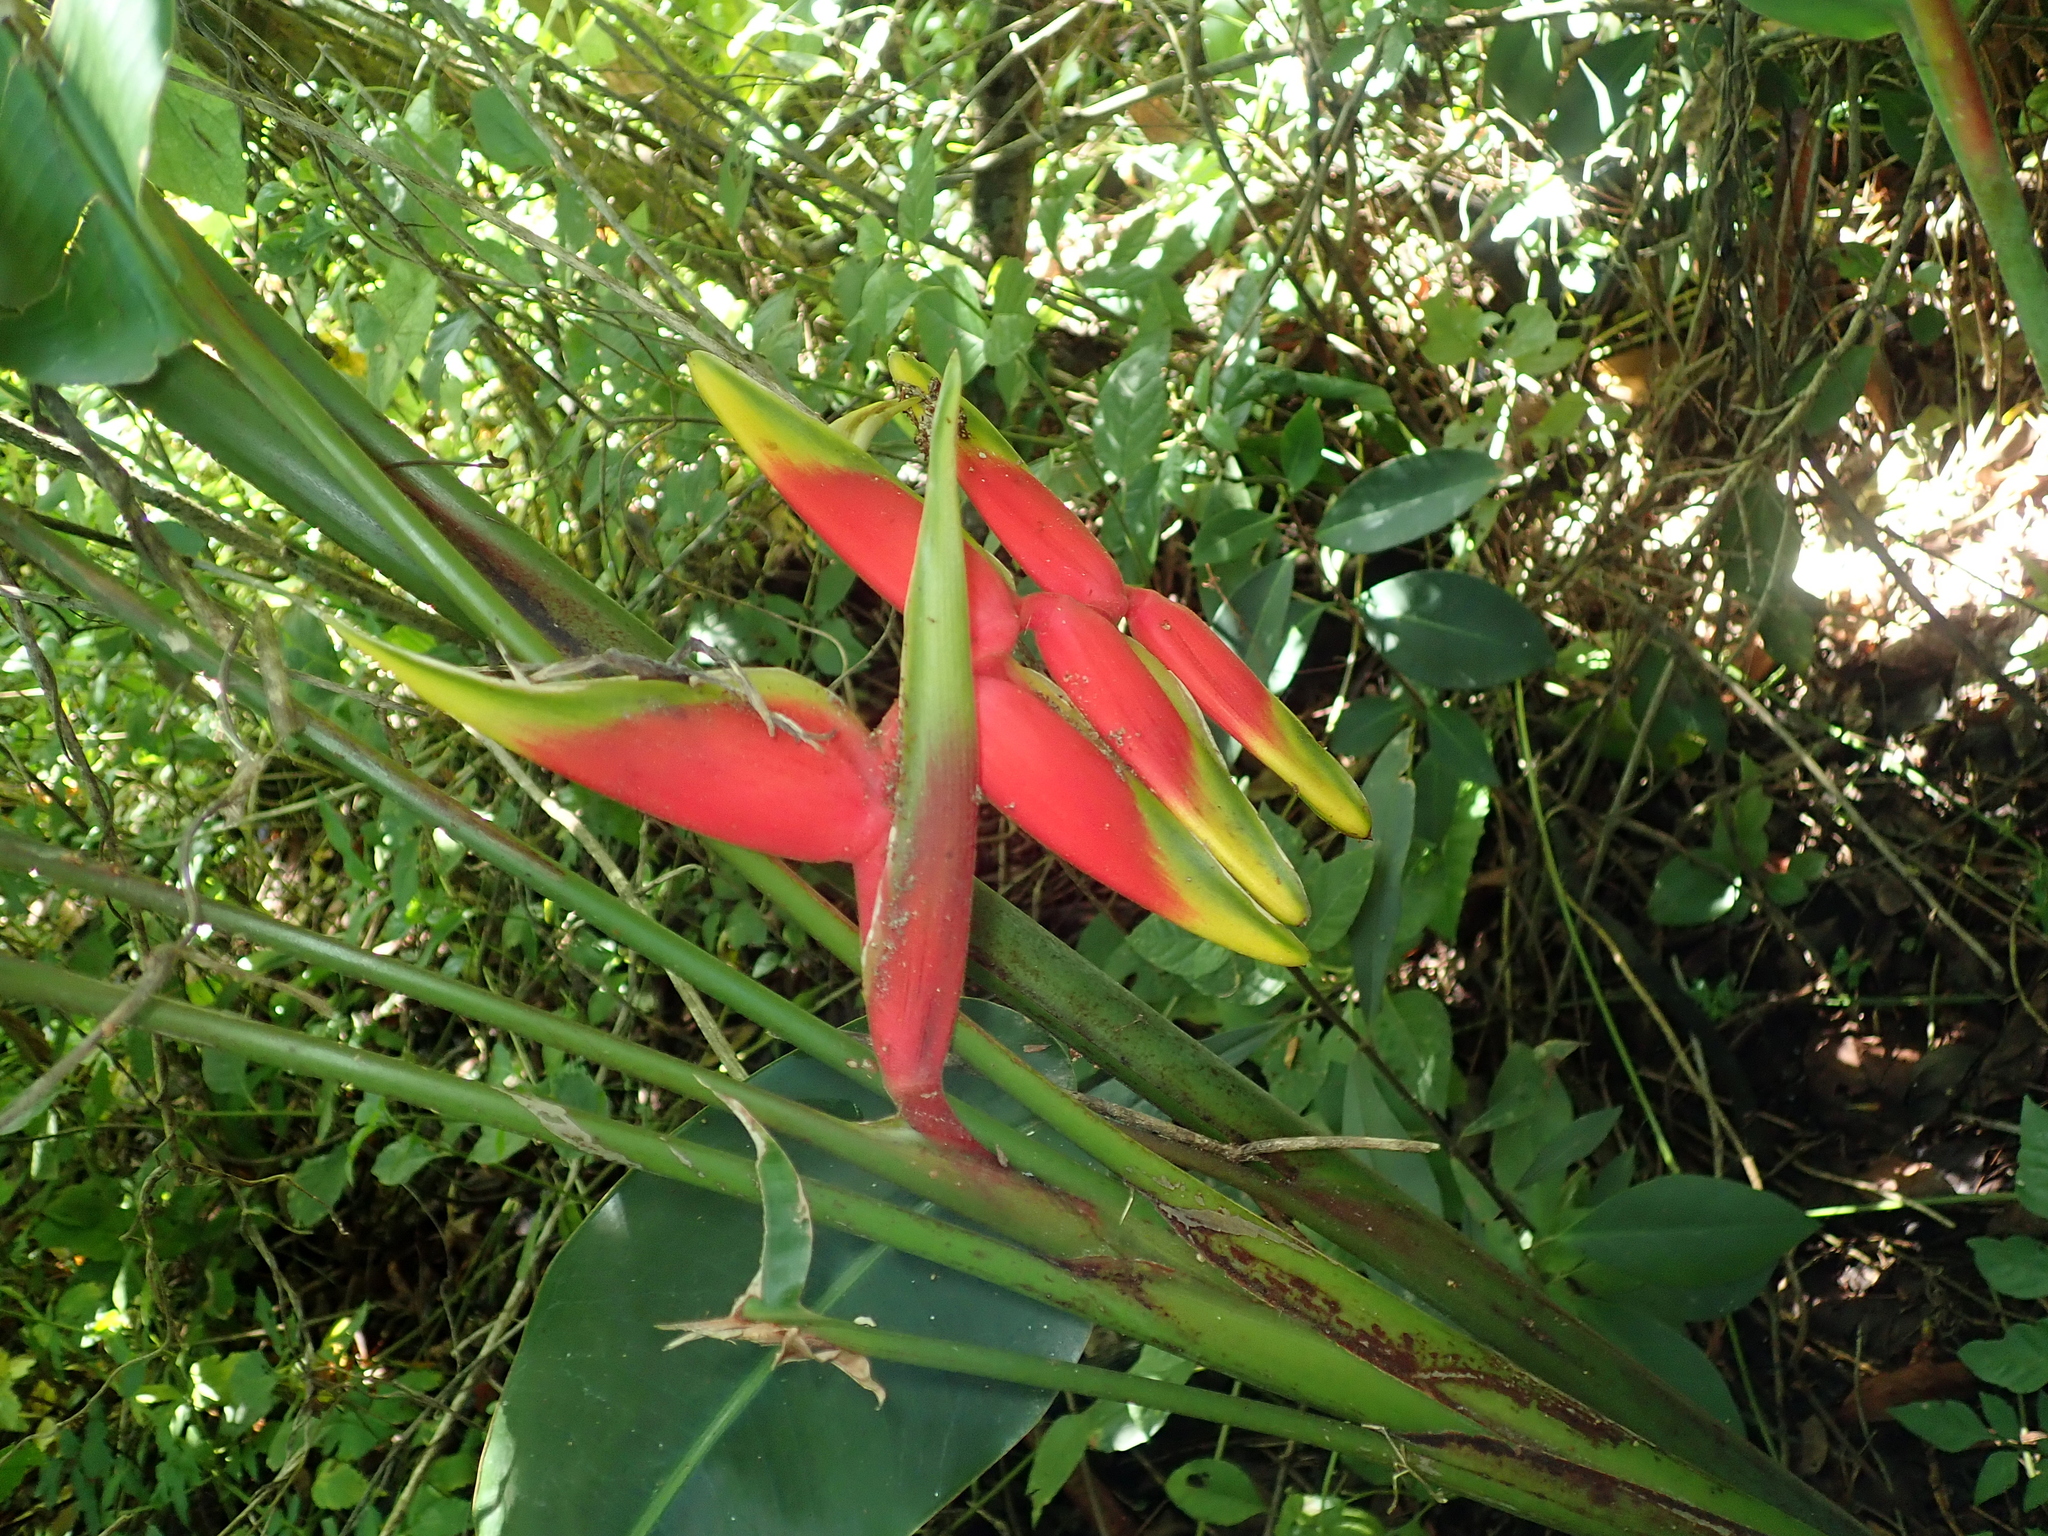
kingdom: Plantae
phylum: Tracheophyta
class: Liliopsida
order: Zingiberales
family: Heliconiaceae
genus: Heliconia
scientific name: Heliconia rostrata
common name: False bird of paradise
